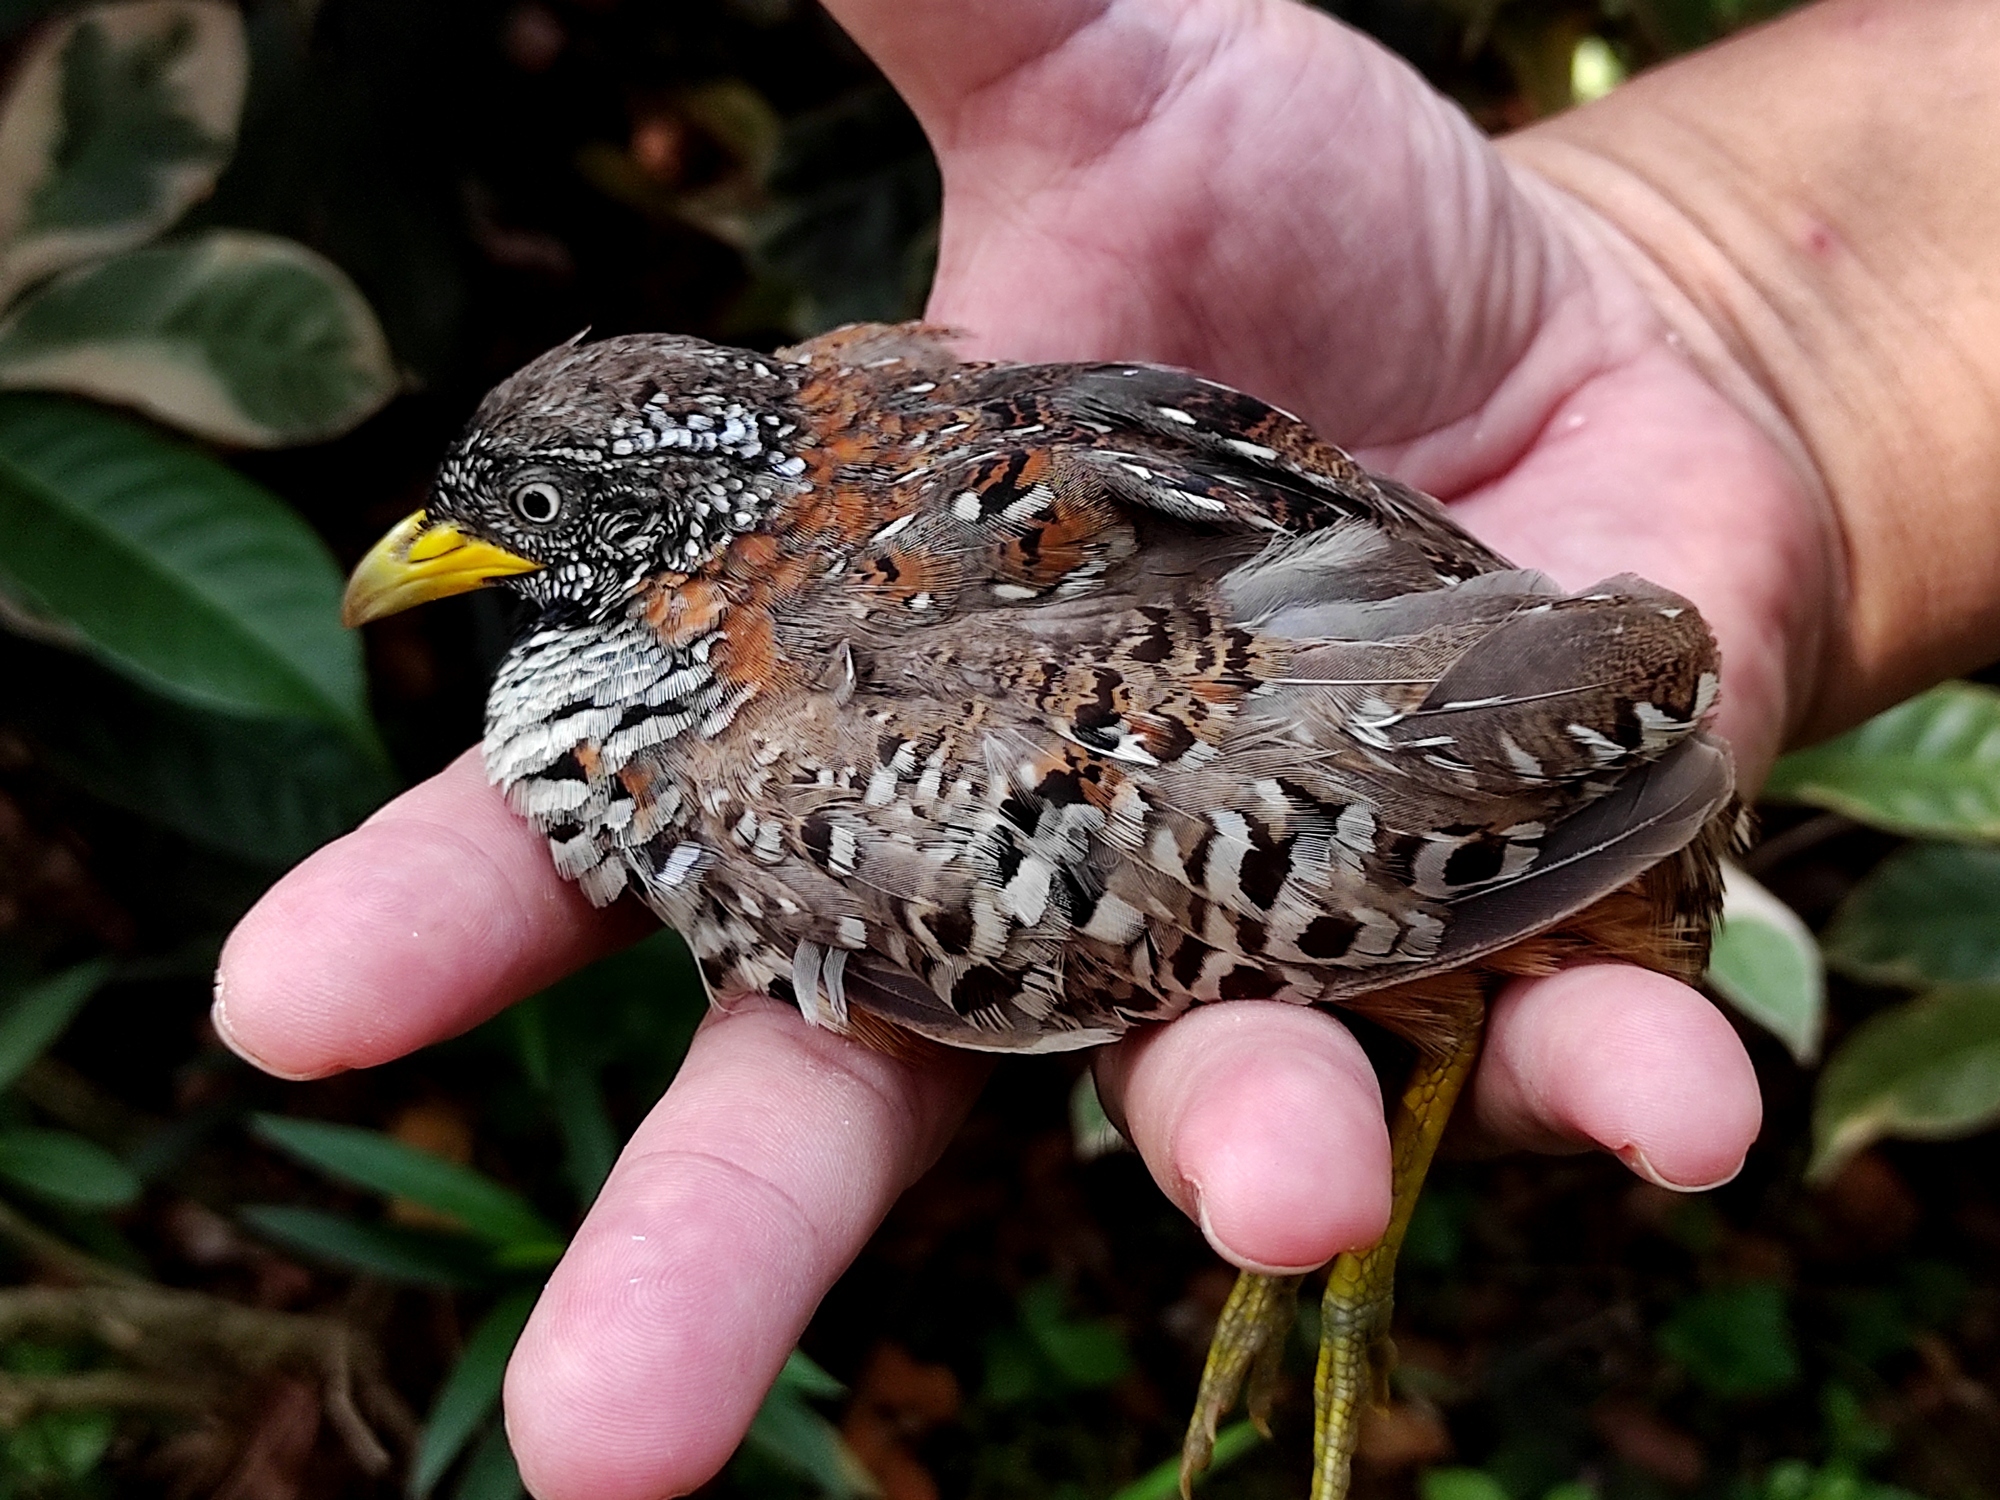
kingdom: Animalia
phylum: Chordata
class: Aves
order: Charadriiformes
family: Turnicidae
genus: Turnix
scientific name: Turnix suscitator
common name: Barred buttonquail
